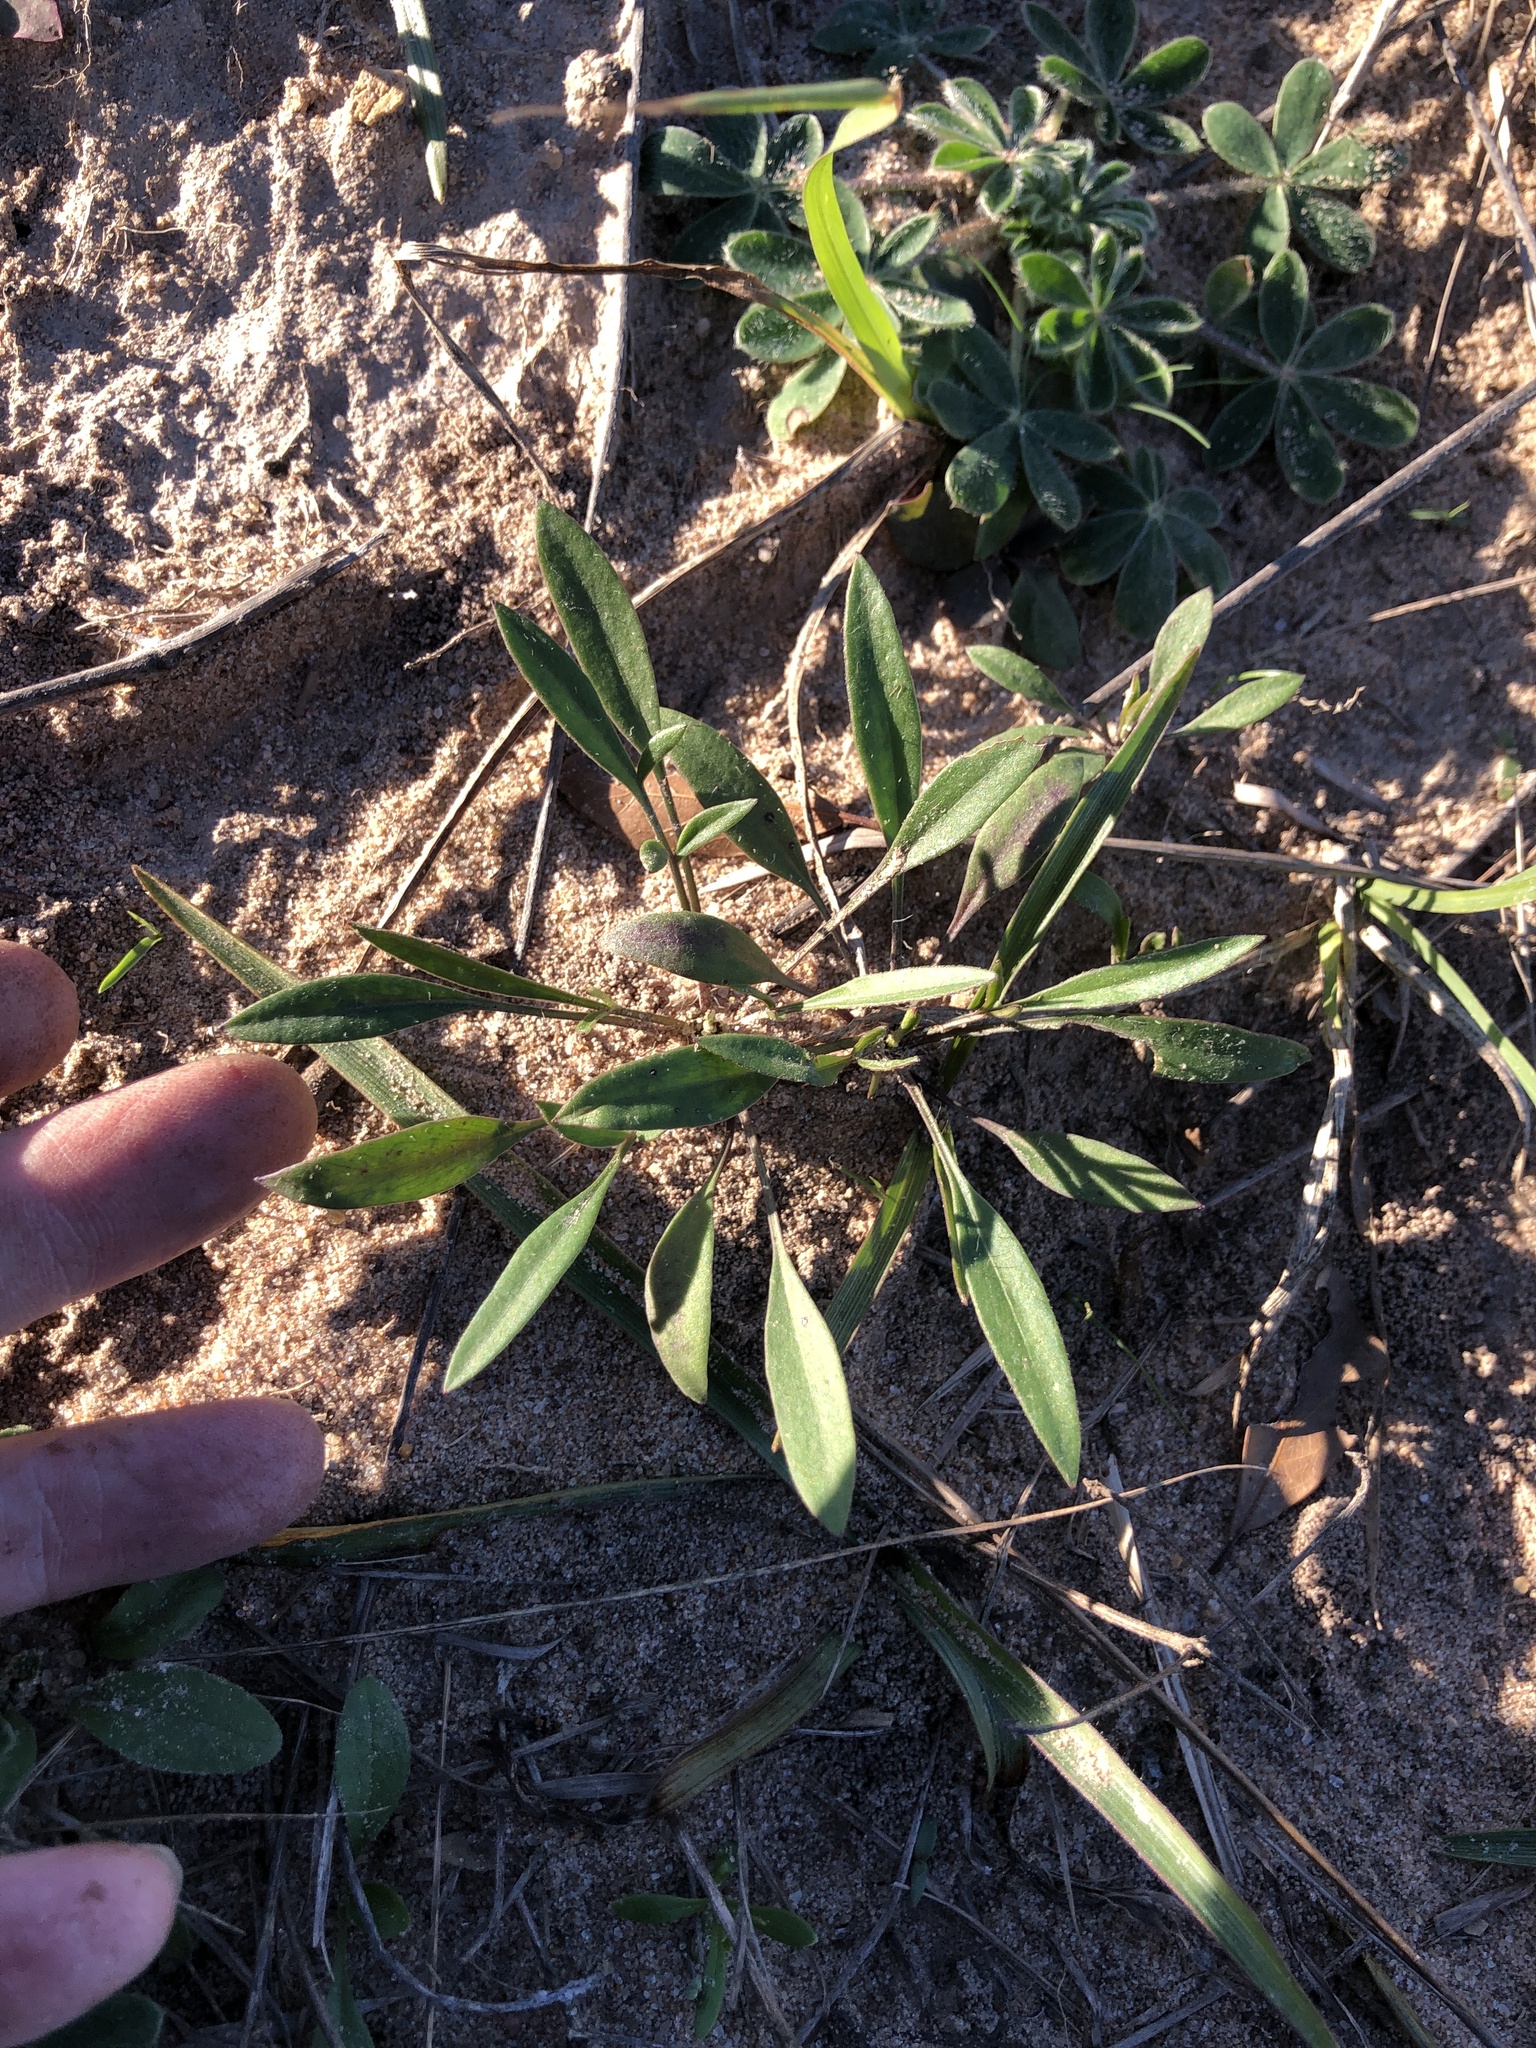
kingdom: Plantae
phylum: Tracheophyta
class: Magnoliopsida
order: Asterales
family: Asteraceae
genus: Coreopsis
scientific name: Coreopsis lanceolata
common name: Garden coreopsis
